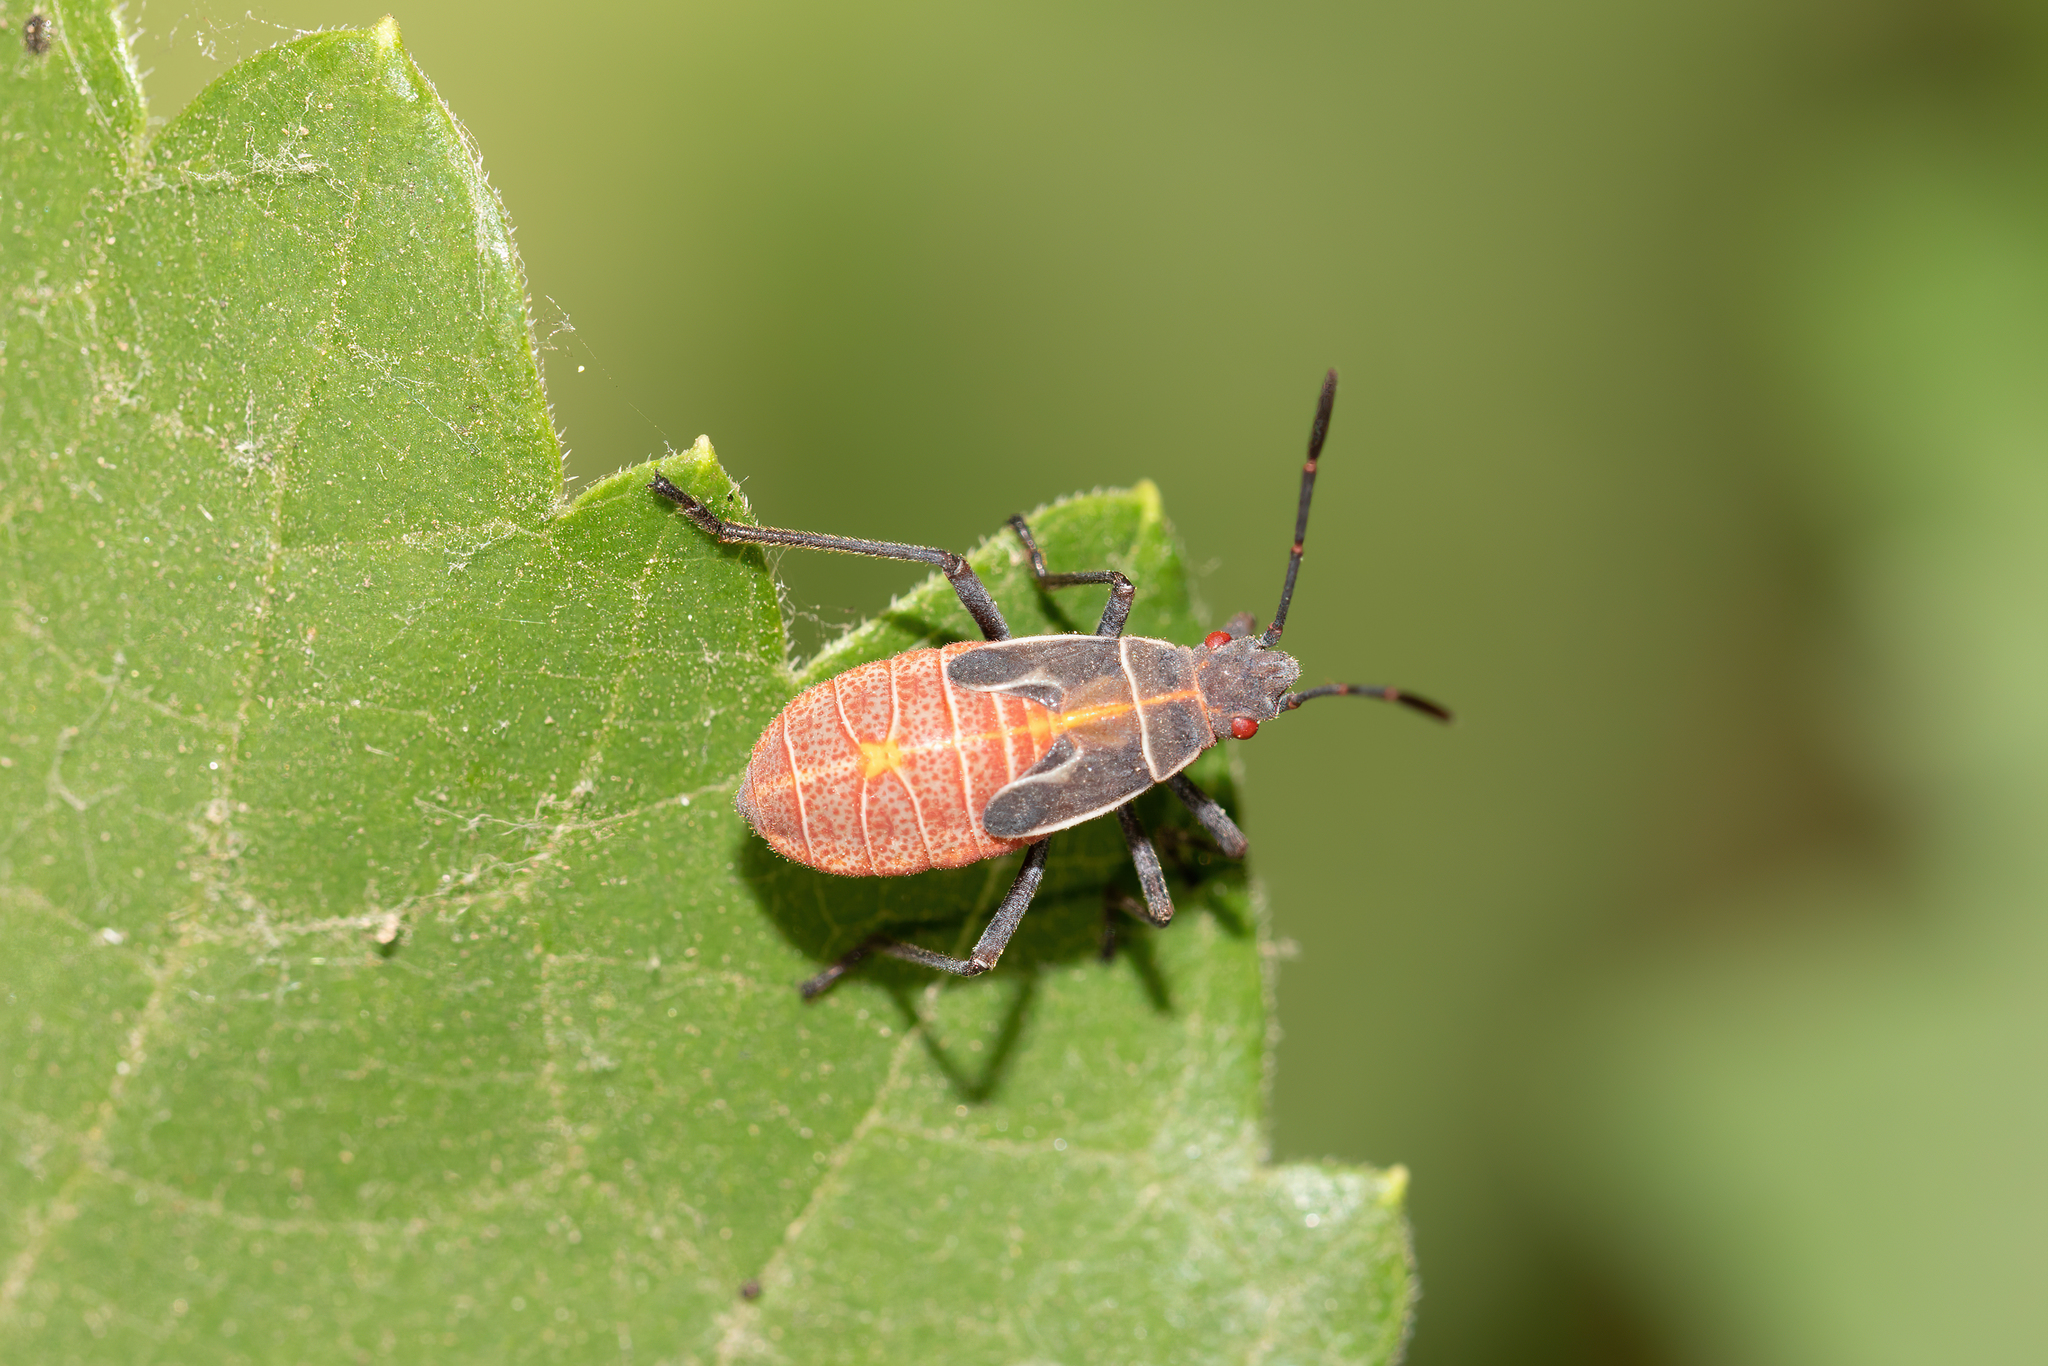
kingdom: Animalia
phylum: Arthropoda
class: Insecta
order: Hemiptera
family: Rhopalidae
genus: Boisea
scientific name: Boisea rubrolineata
